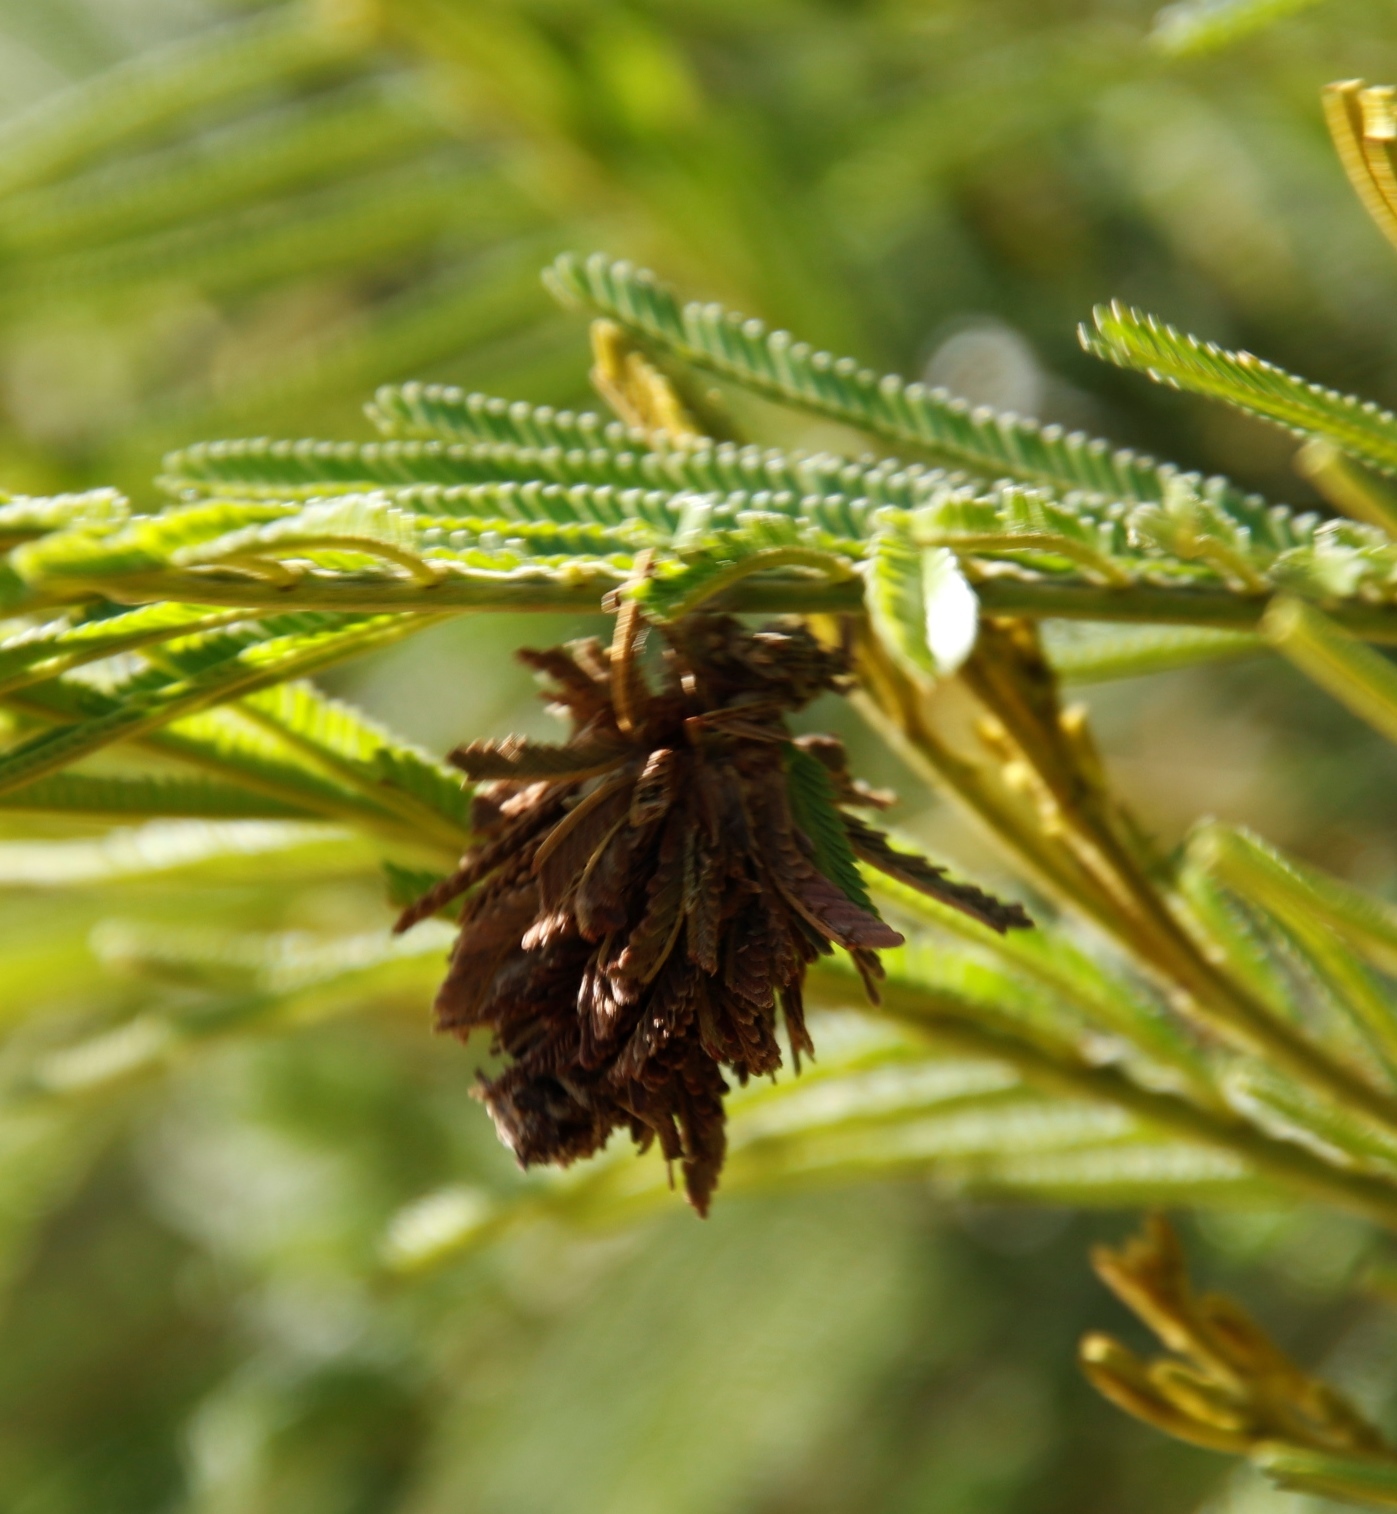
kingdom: Animalia
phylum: Arthropoda
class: Insecta
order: Lepidoptera
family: Psychidae
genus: Chaliopsis
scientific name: Chaliopsis junodi
